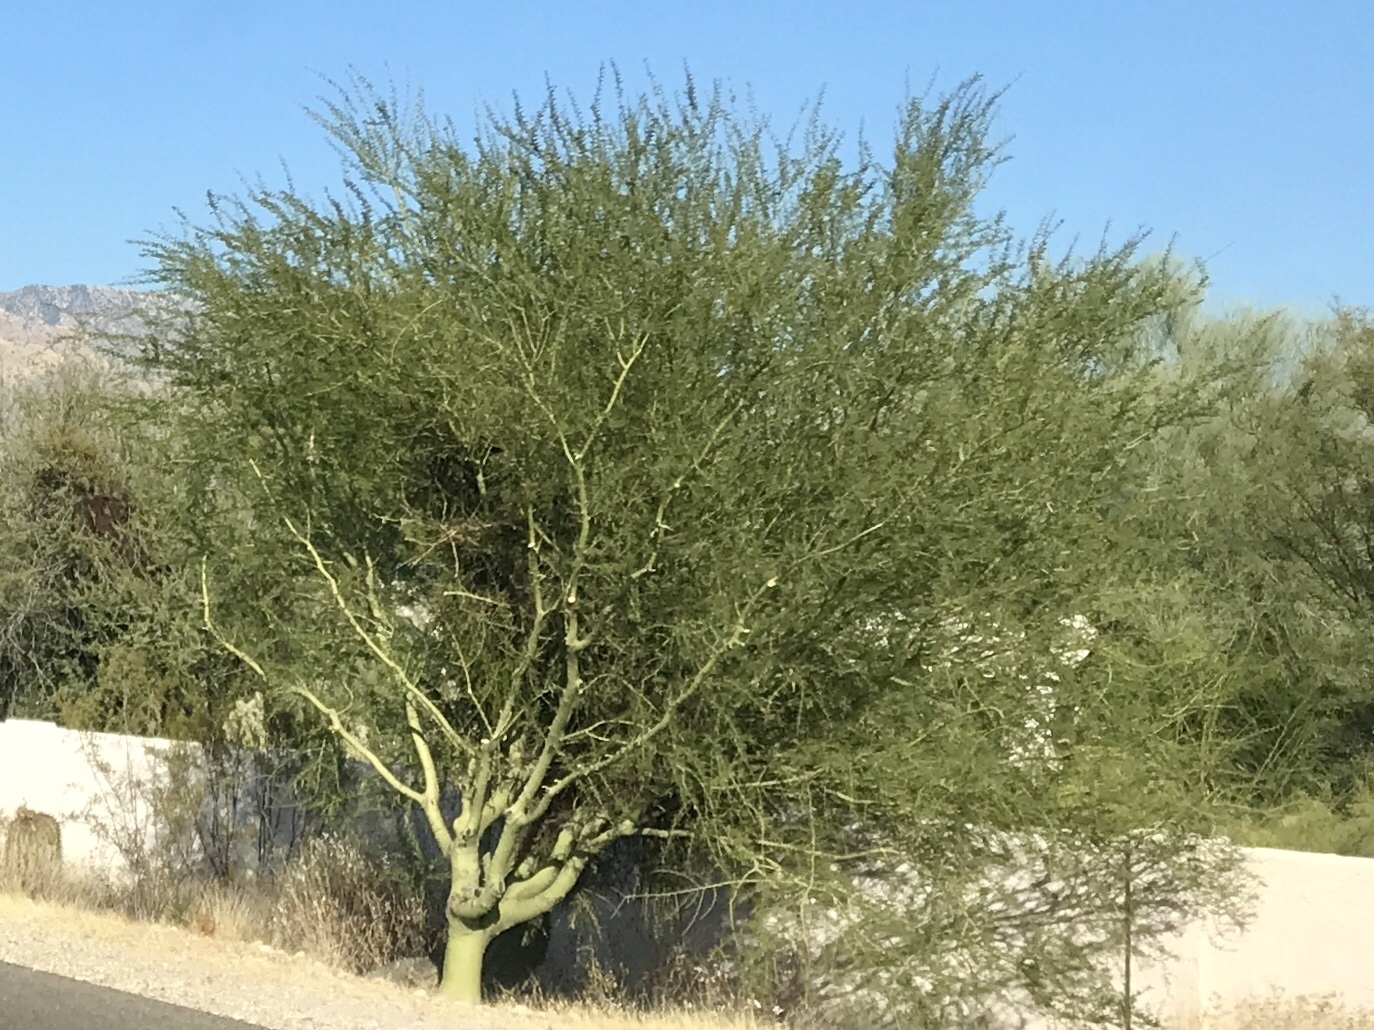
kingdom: Plantae
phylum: Tracheophyta
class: Magnoliopsida
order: Fabales
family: Fabaceae
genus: Parkinsonia
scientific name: Parkinsonia praecox
